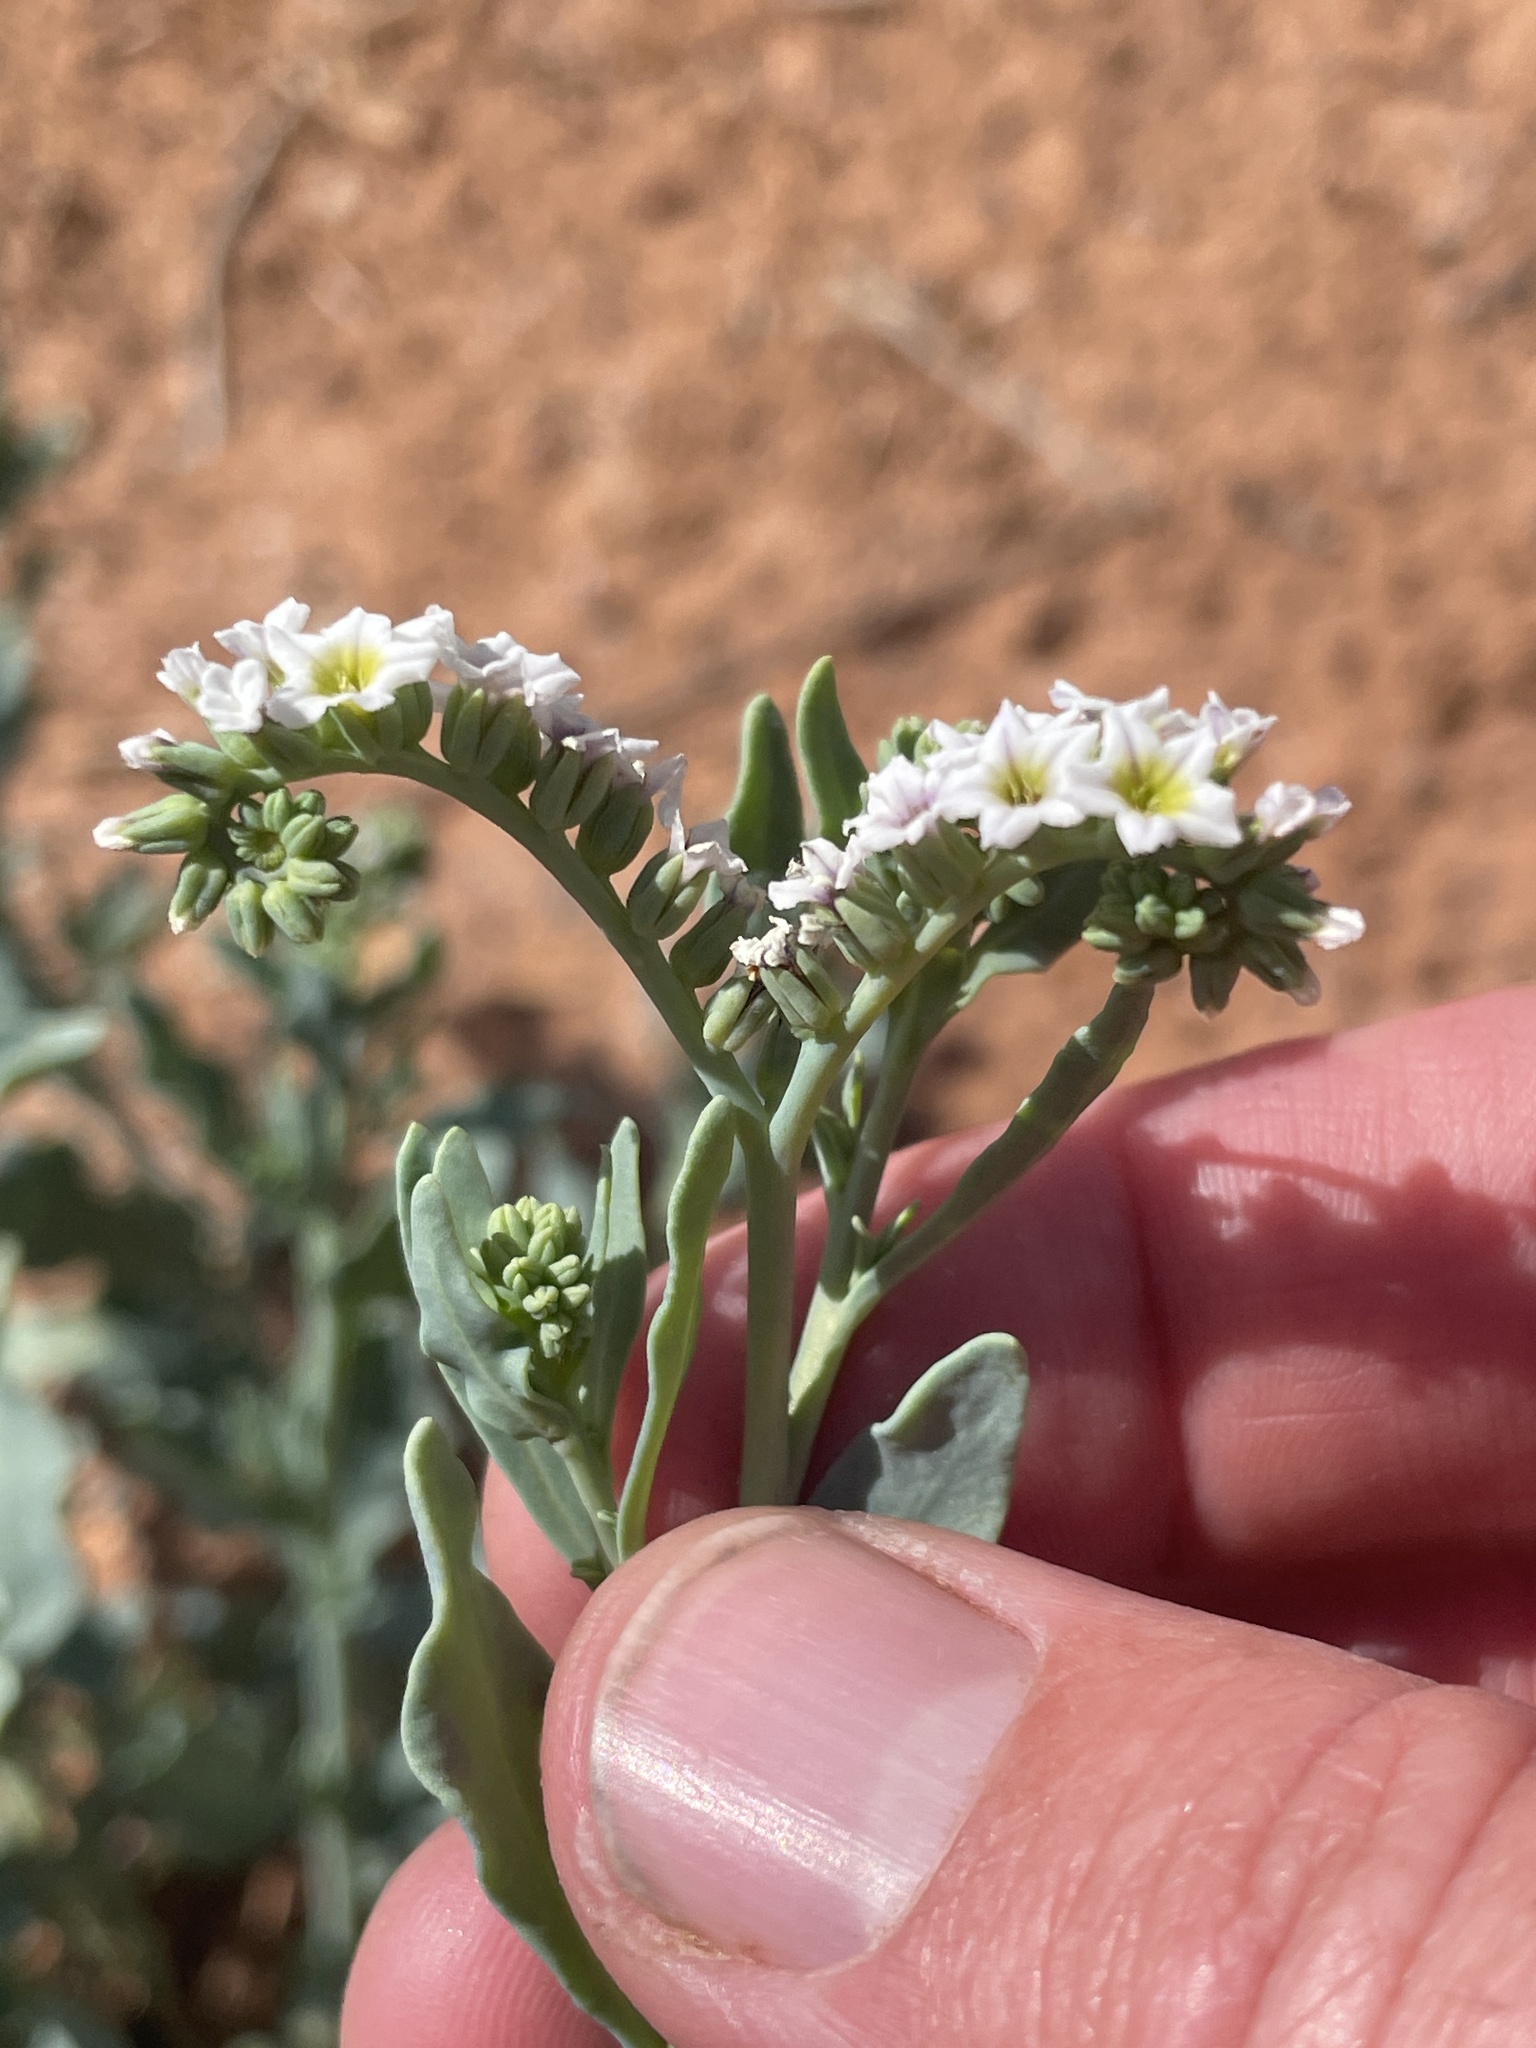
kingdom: Plantae
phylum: Tracheophyta
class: Magnoliopsida
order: Boraginales
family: Heliotropiaceae
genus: Heliotropium
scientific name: Heliotropium curassavicum
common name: Seaside heliotrope
